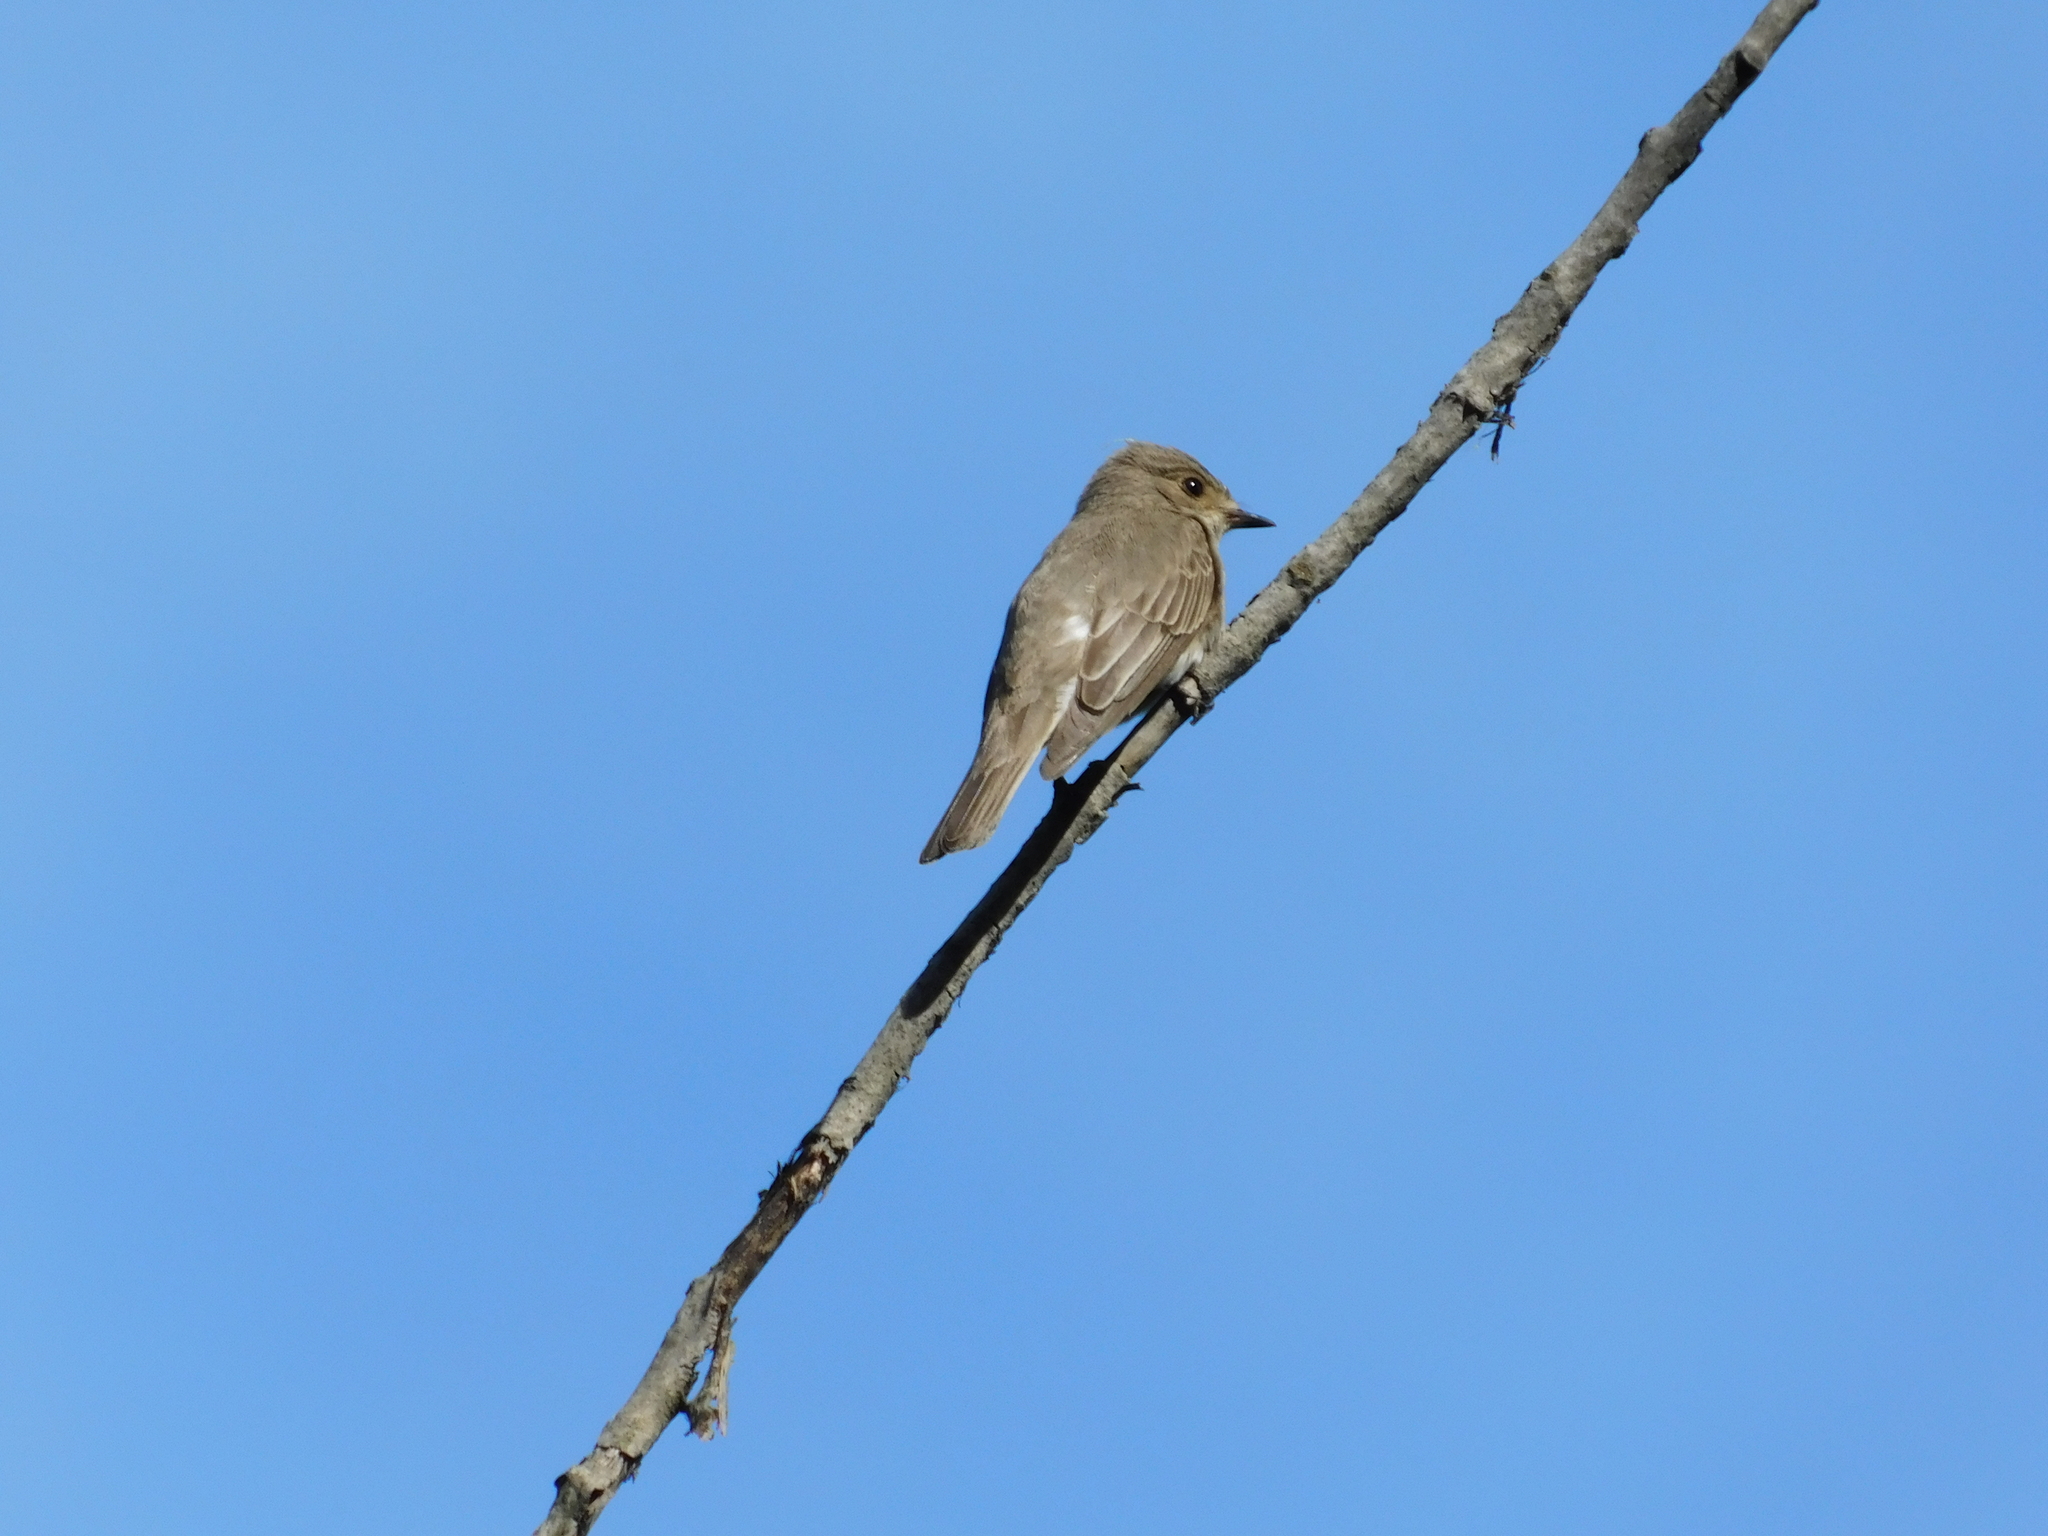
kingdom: Animalia
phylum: Chordata
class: Aves
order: Passeriformes
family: Muscicapidae
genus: Muscicapa
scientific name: Muscicapa striata
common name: Spotted flycatcher
